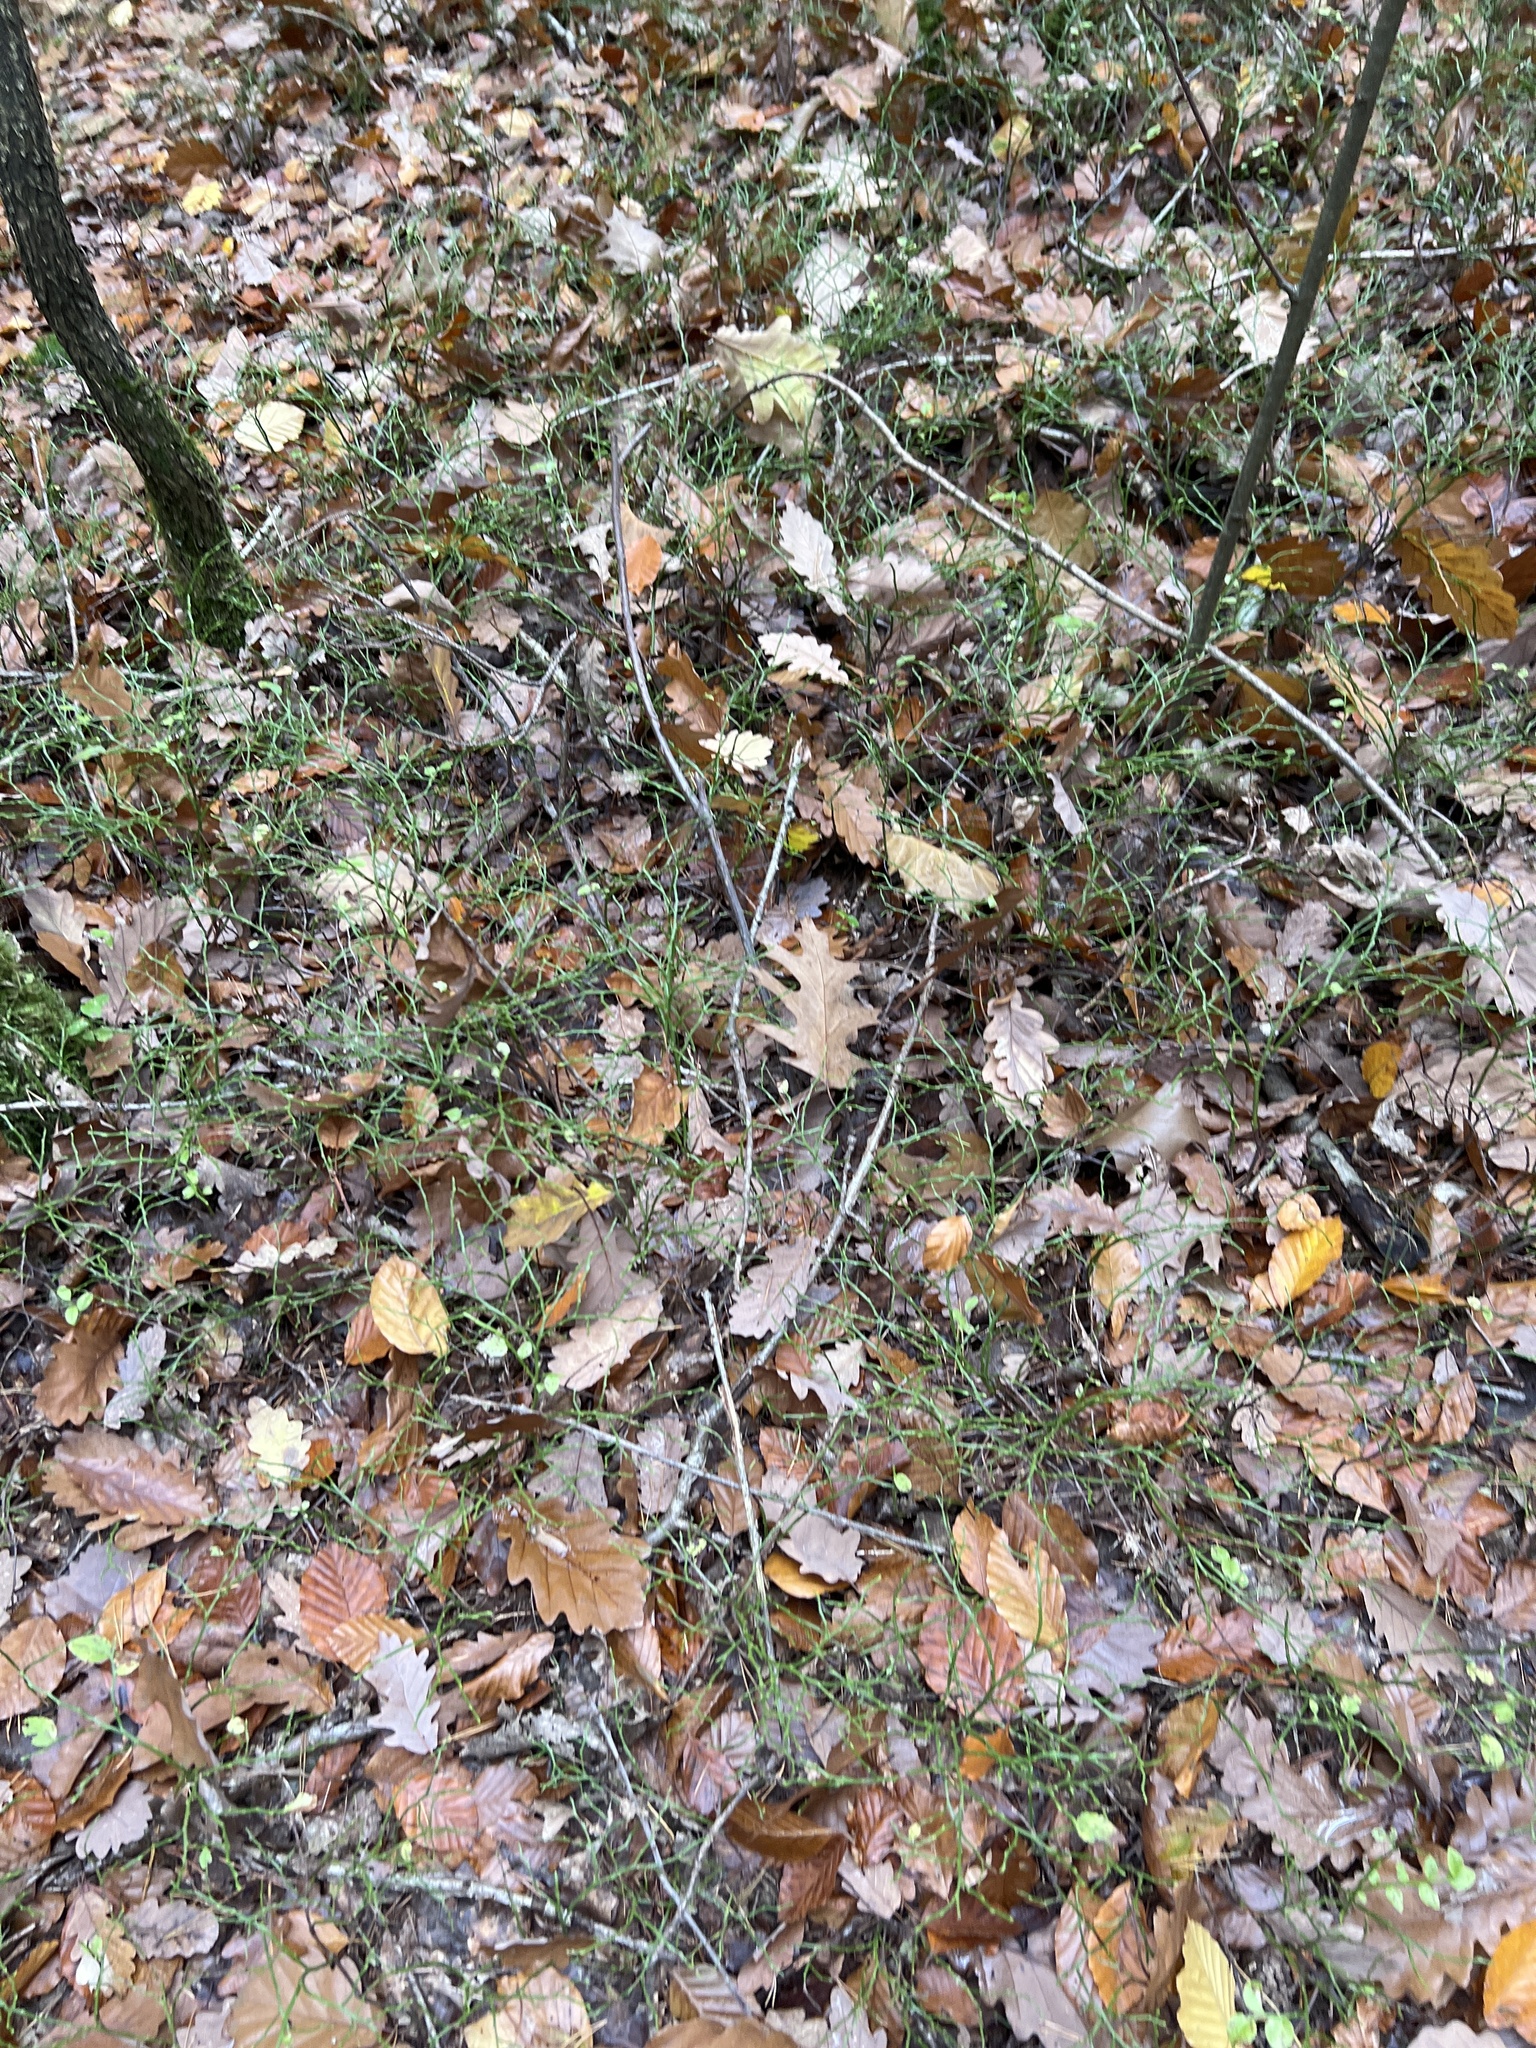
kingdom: Plantae
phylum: Tracheophyta
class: Magnoliopsida
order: Ericales
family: Ericaceae
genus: Vaccinium
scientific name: Vaccinium myrtillus
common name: Bilberry
